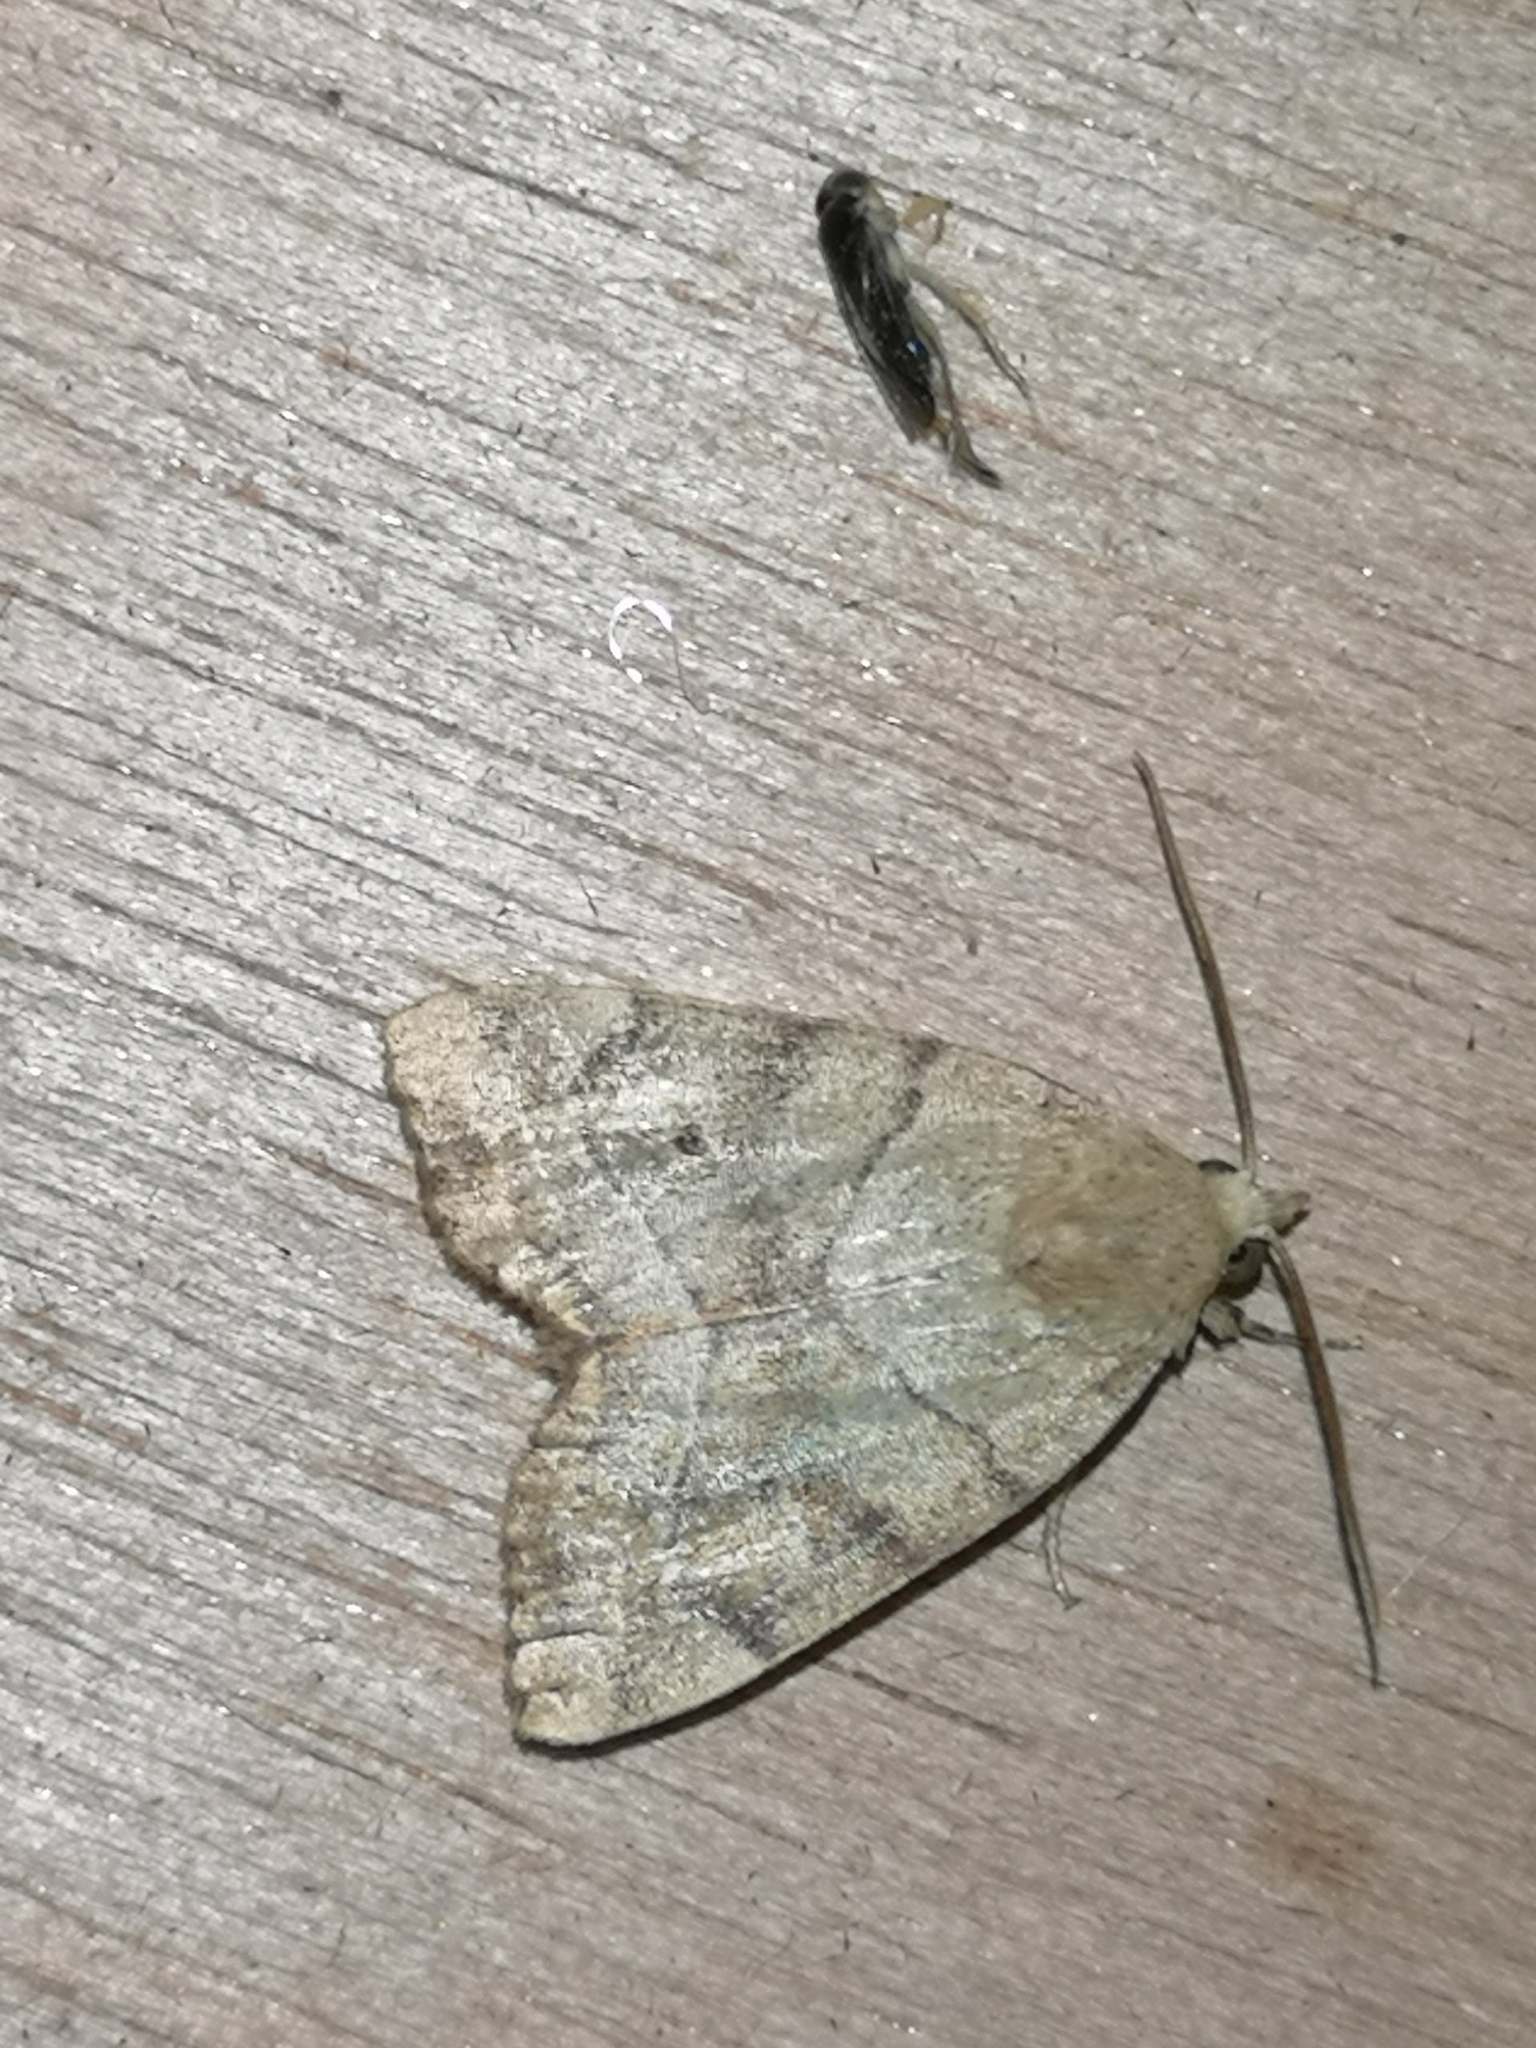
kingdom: Animalia
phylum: Arthropoda
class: Insecta
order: Lepidoptera
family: Noctuidae
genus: Cosmia
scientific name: Cosmia trapezina
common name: Dun-bar
